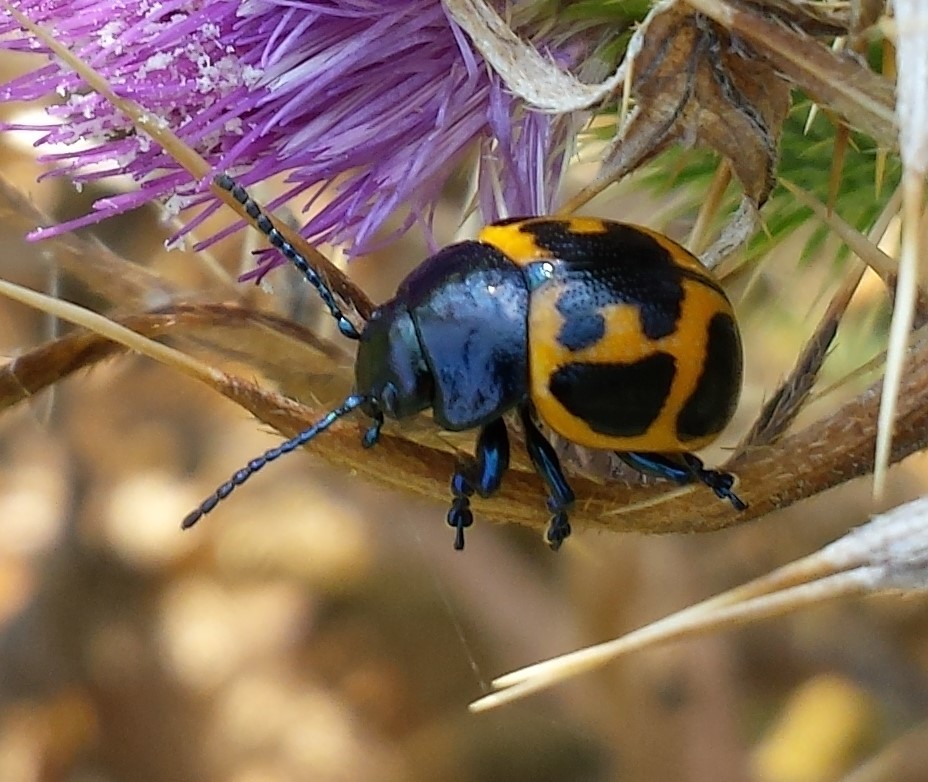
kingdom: Animalia
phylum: Arthropoda
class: Insecta
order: Coleoptera
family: Chrysomelidae
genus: Labidomera
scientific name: Labidomera clivicollis
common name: Swamp milkweed leaf beetle
